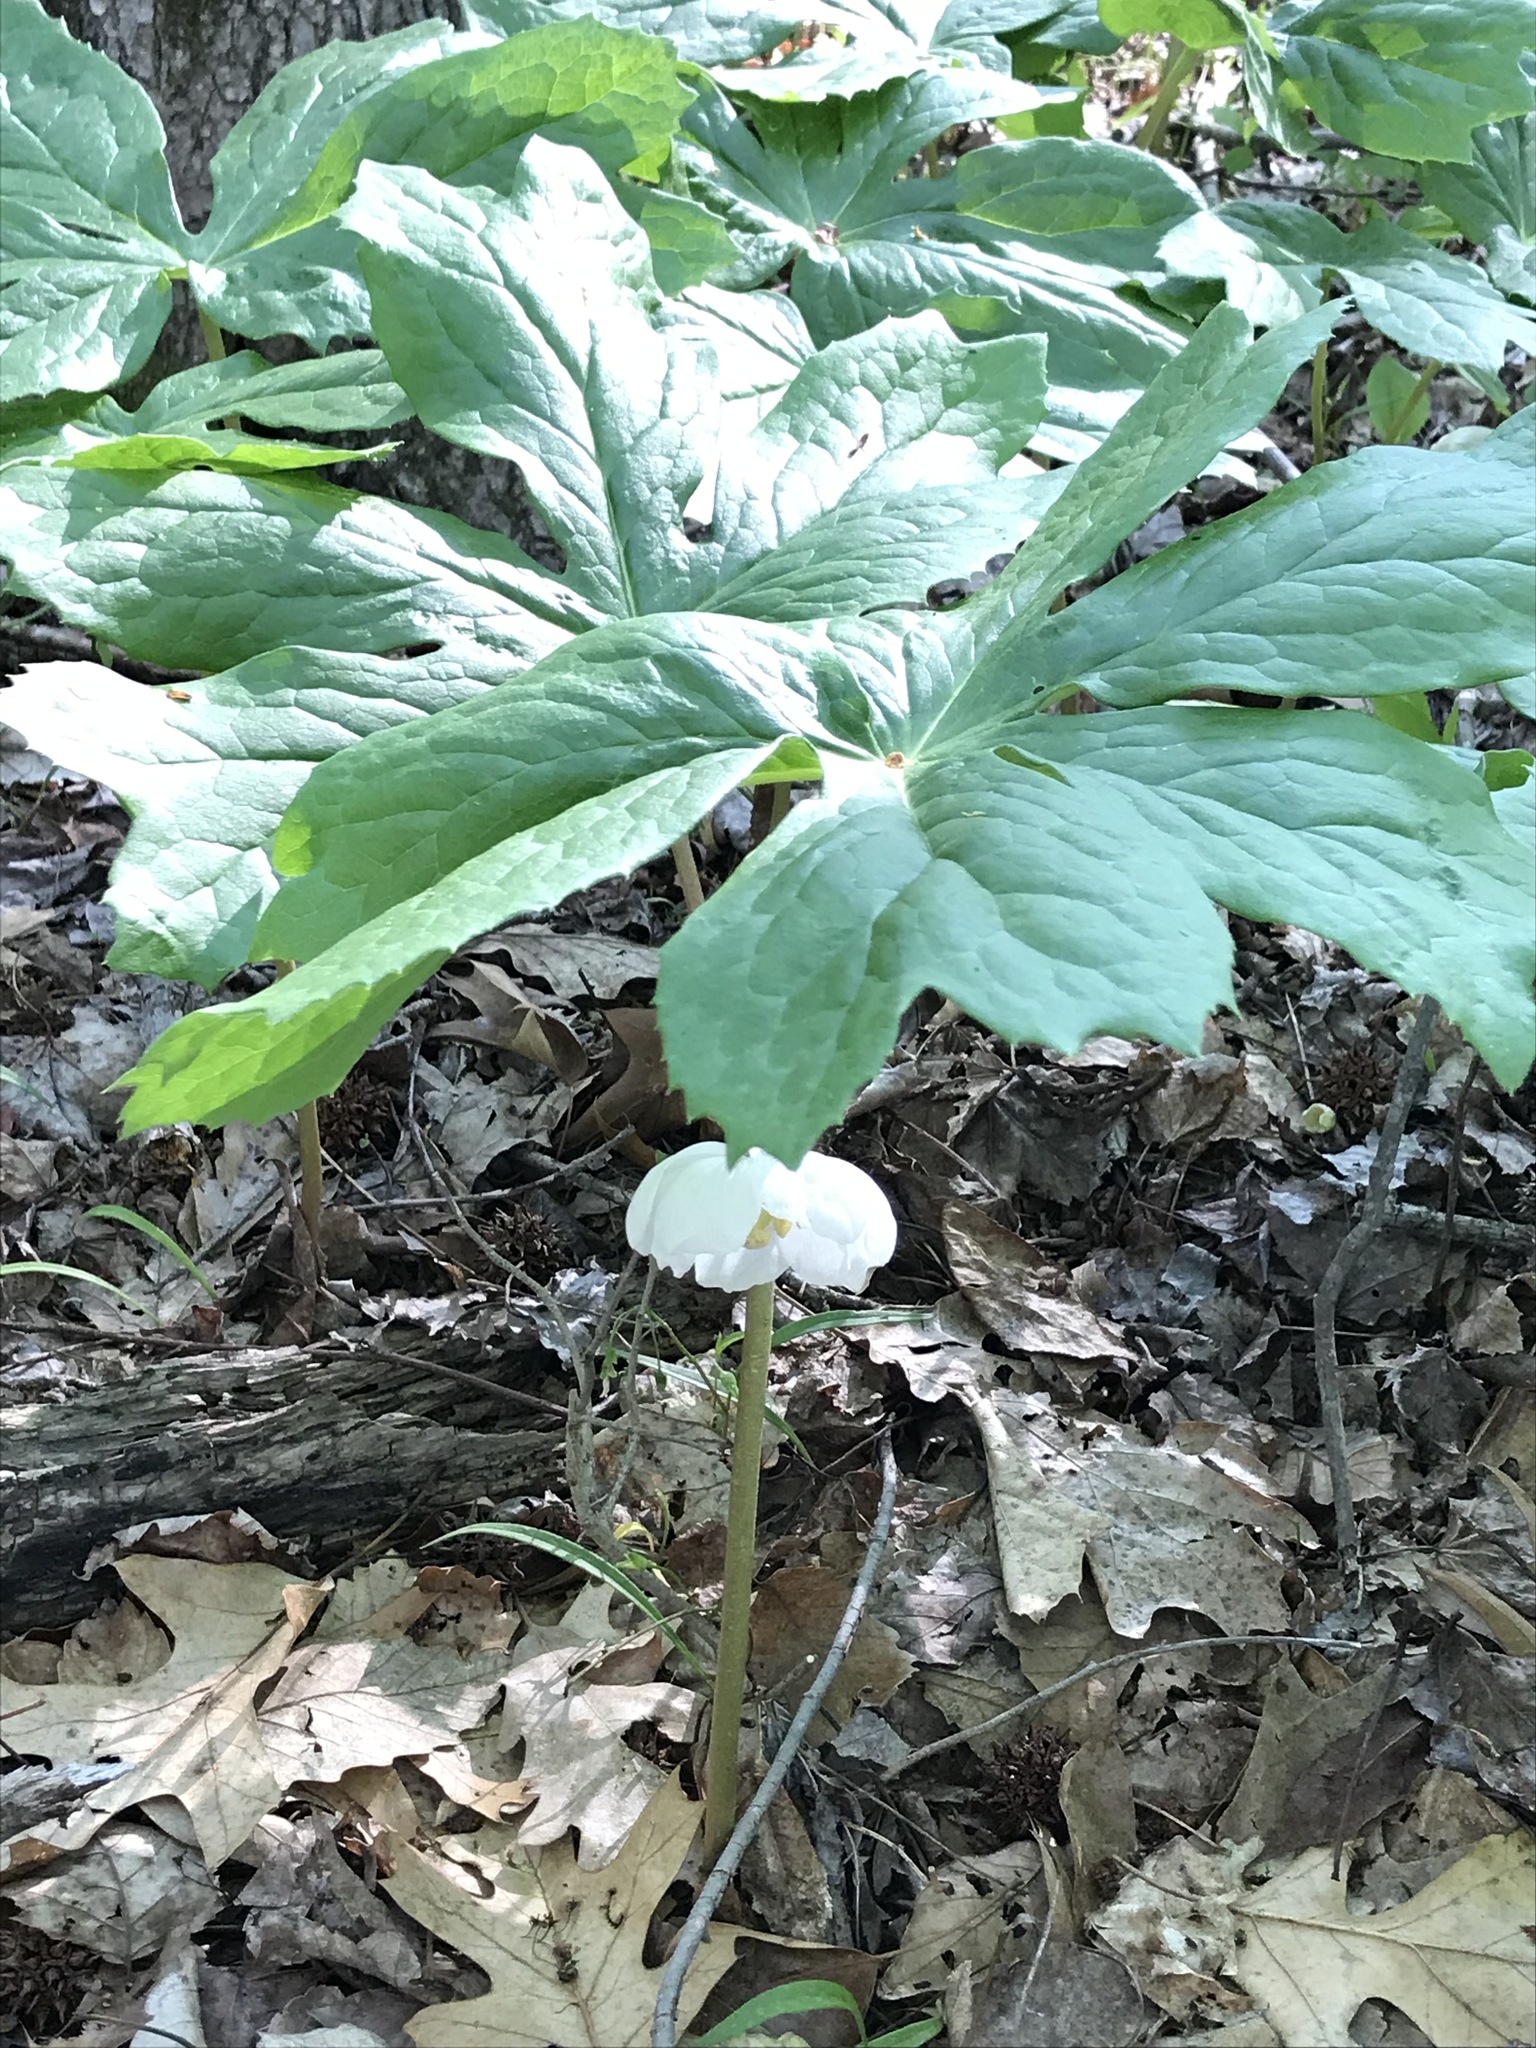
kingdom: Plantae
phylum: Tracheophyta
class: Magnoliopsida
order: Ranunculales
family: Berberidaceae
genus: Podophyllum
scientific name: Podophyllum peltatum
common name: Wild mandrake
